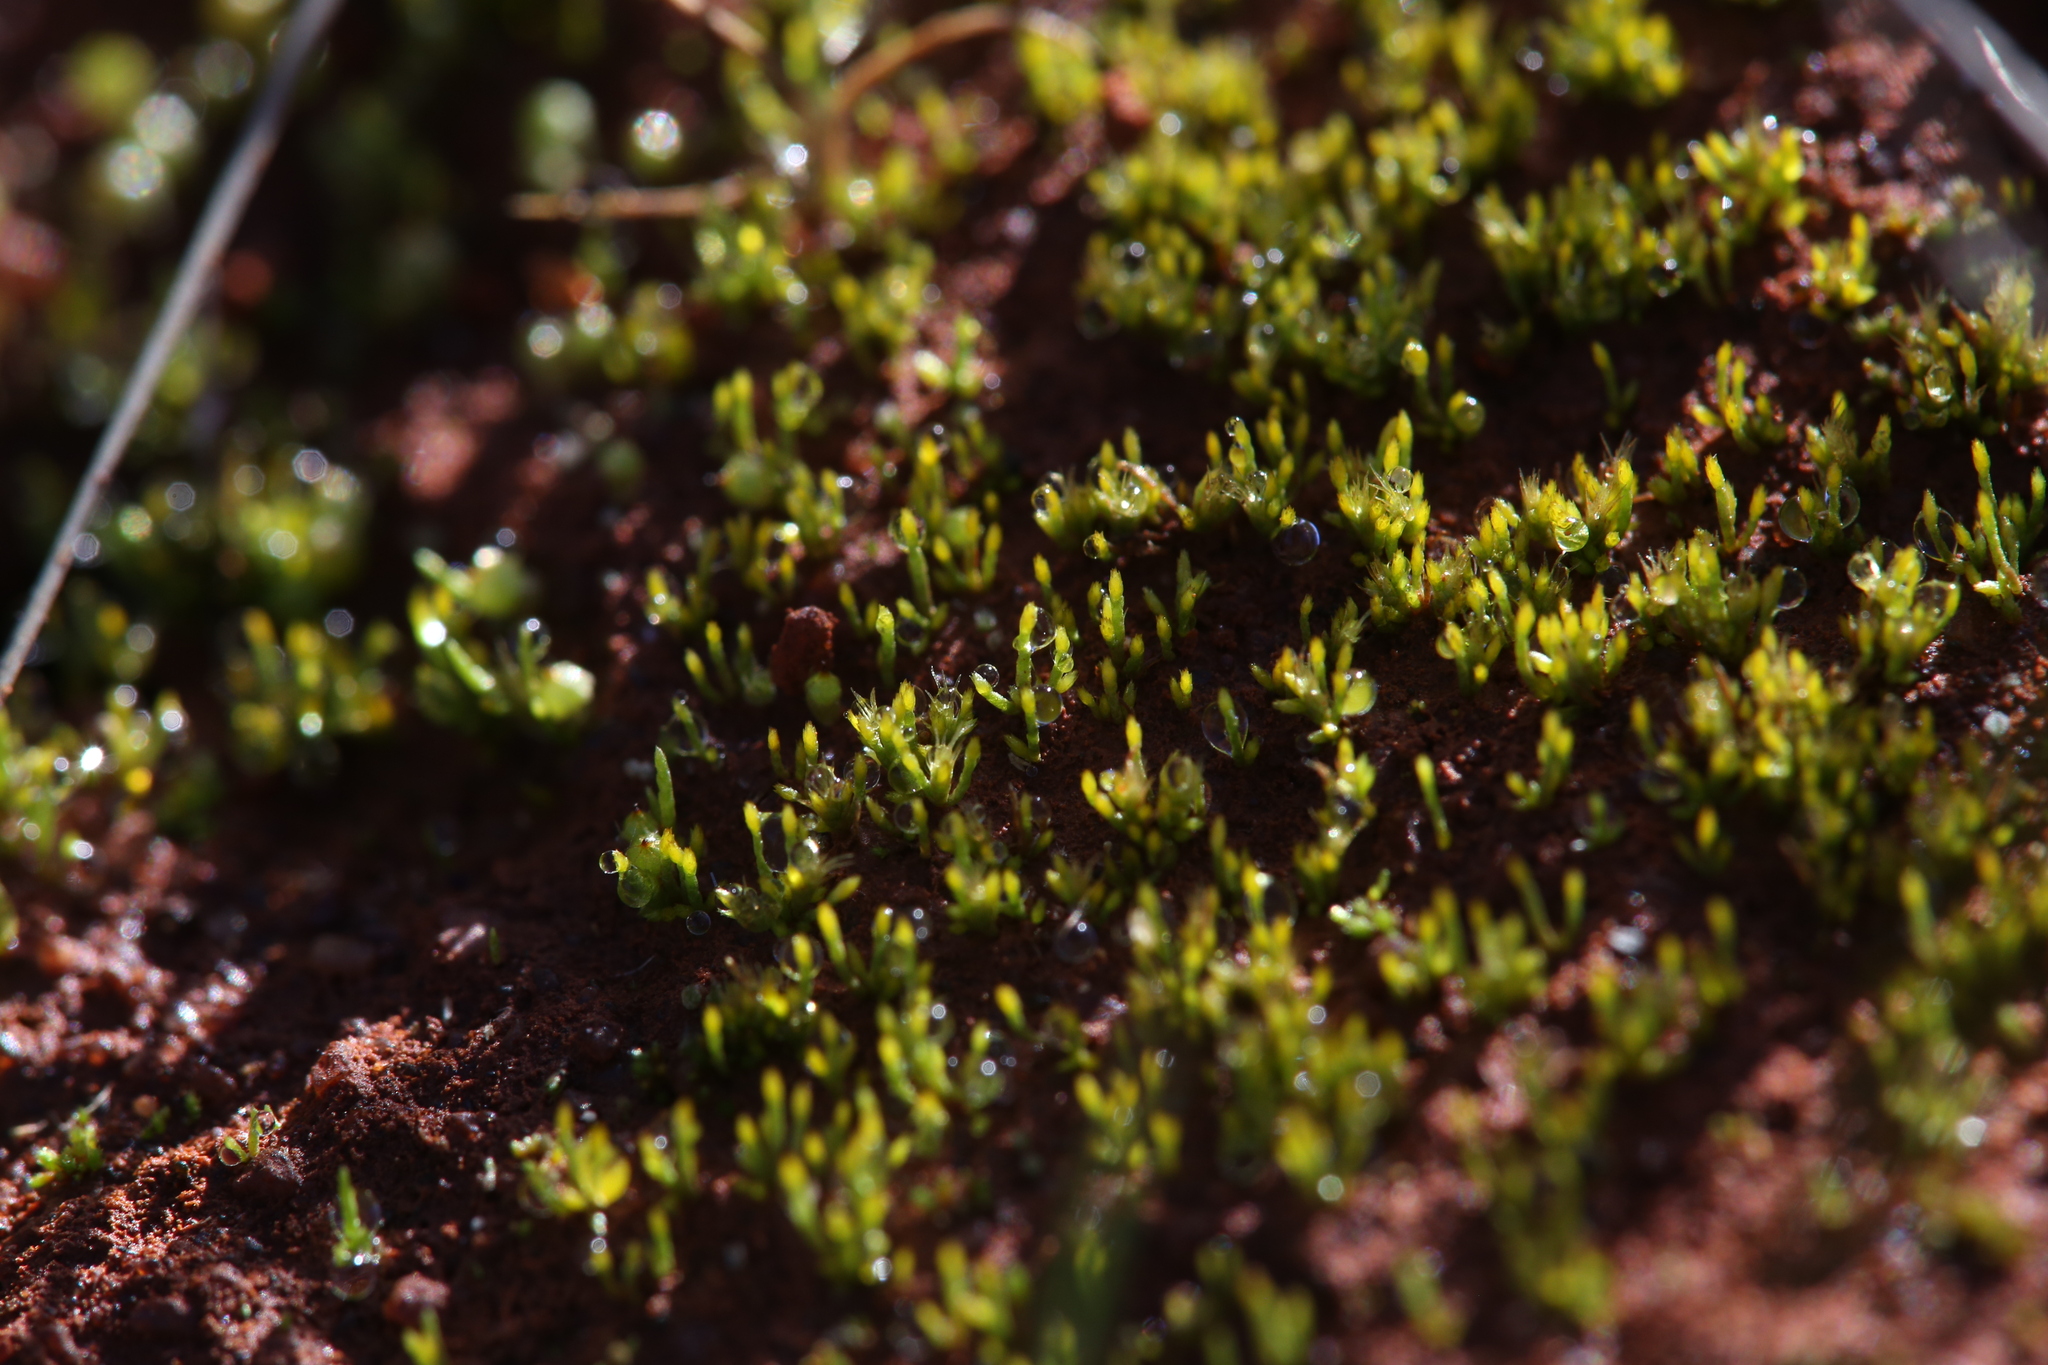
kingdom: Plantae
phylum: Bryophyta
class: Bryopsida
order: Dicranales
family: Dicranellaceae
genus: Eccremidium
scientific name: Eccremidium pulchellum
